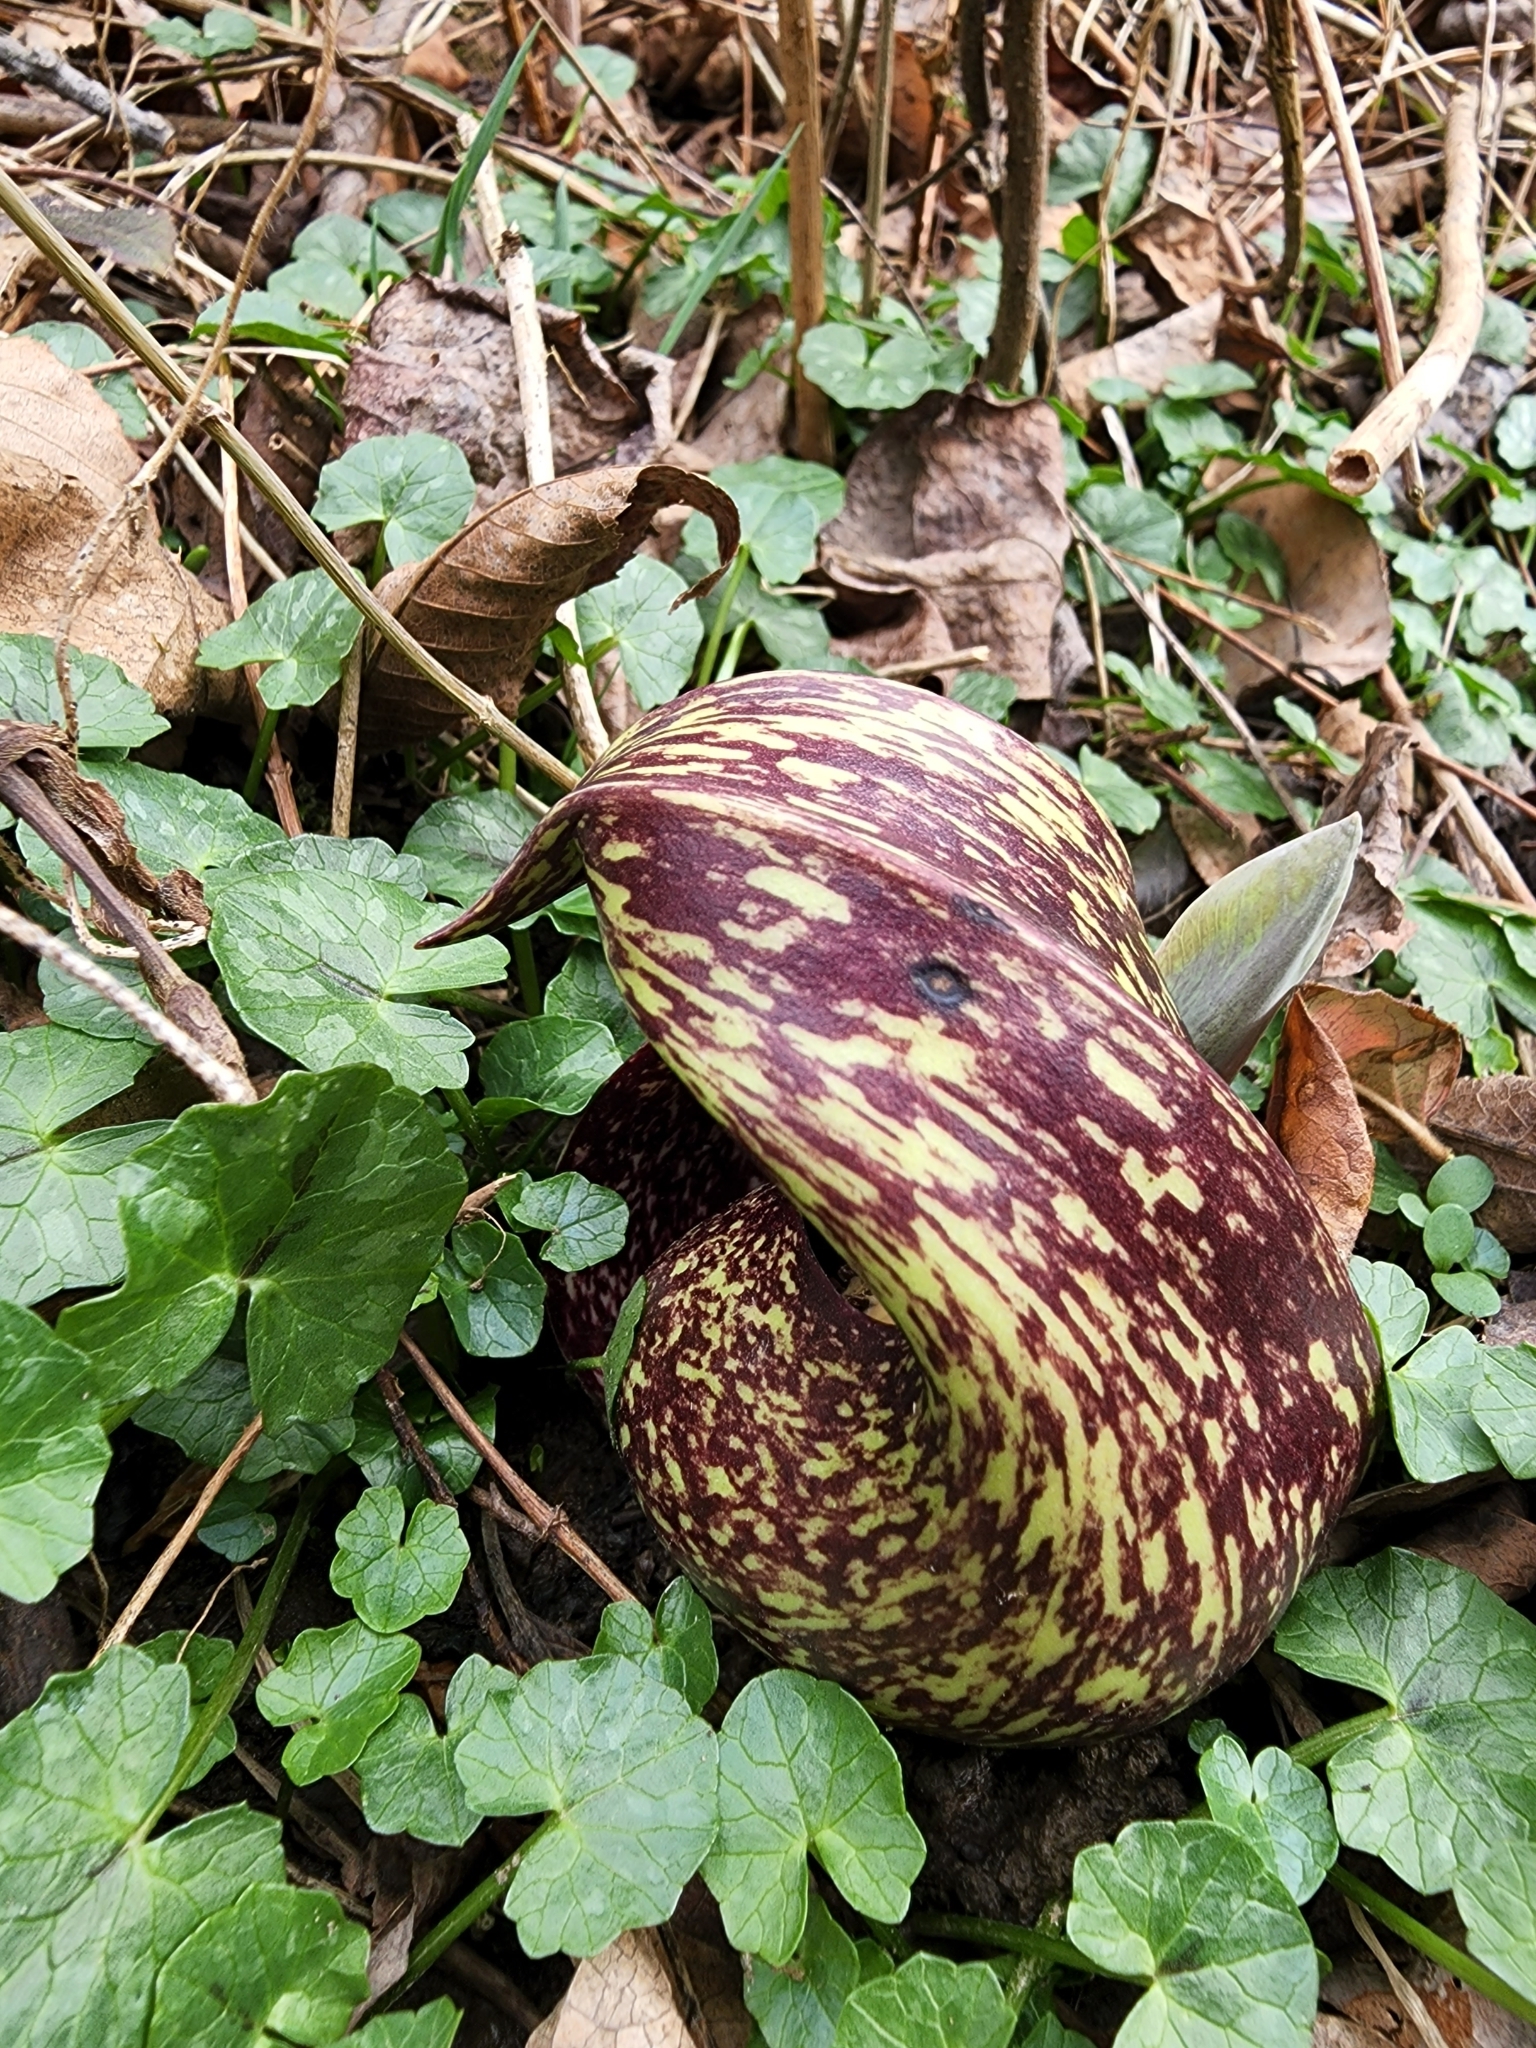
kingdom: Plantae
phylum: Tracheophyta
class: Liliopsida
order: Alismatales
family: Araceae
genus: Symplocarpus
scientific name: Symplocarpus foetidus
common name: Eastern skunk cabbage
